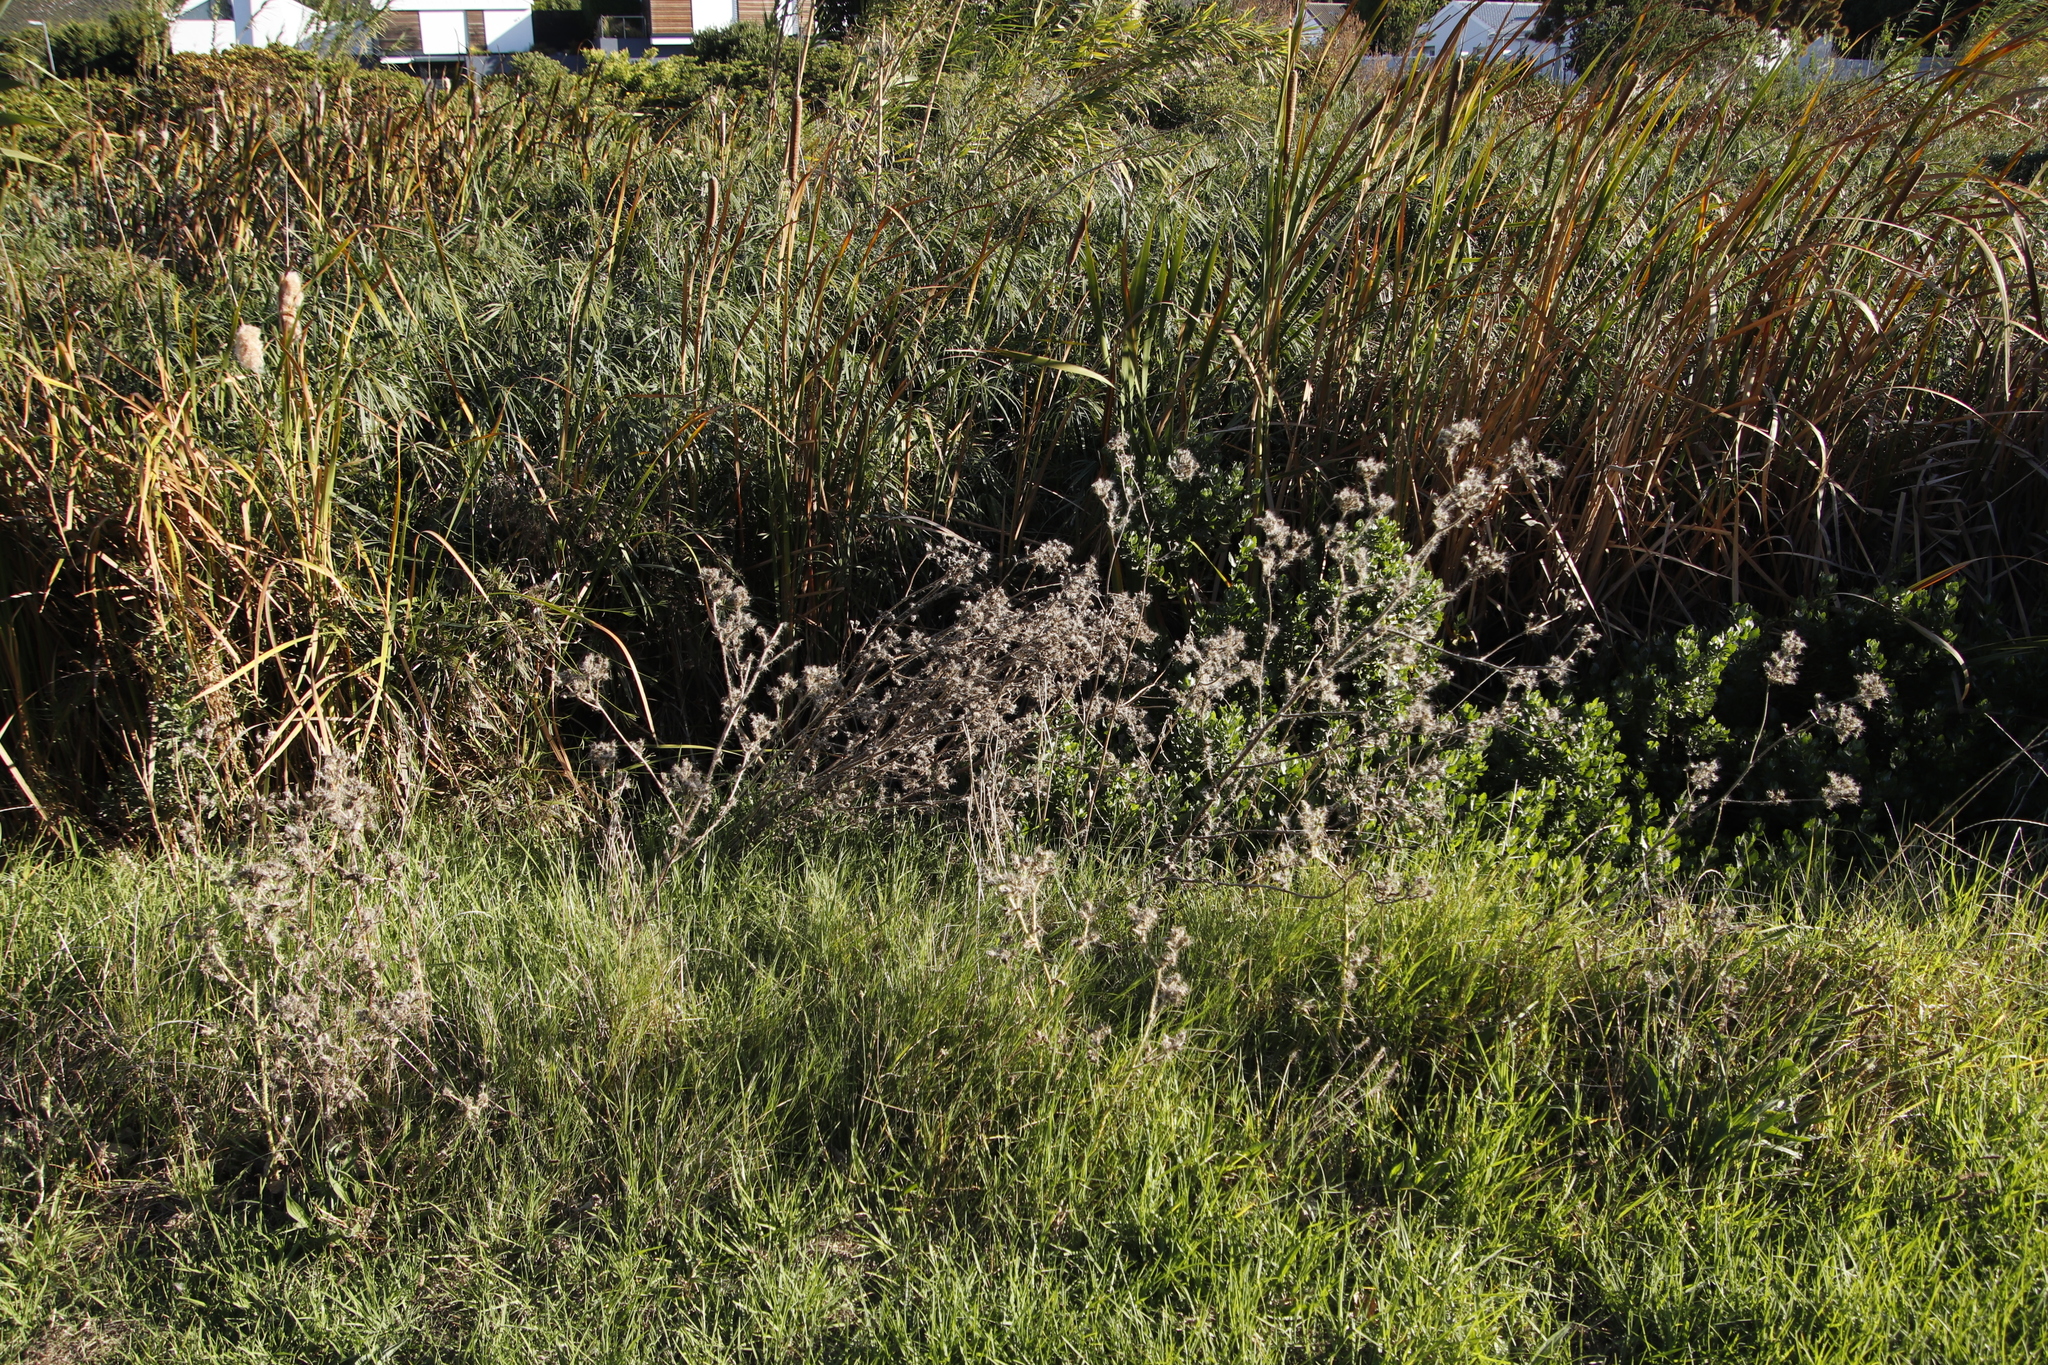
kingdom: Plantae
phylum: Tracheophyta
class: Magnoliopsida
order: Asterales
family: Asteraceae
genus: Helminthotheca
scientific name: Helminthotheca echioides
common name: Ox-tongue
